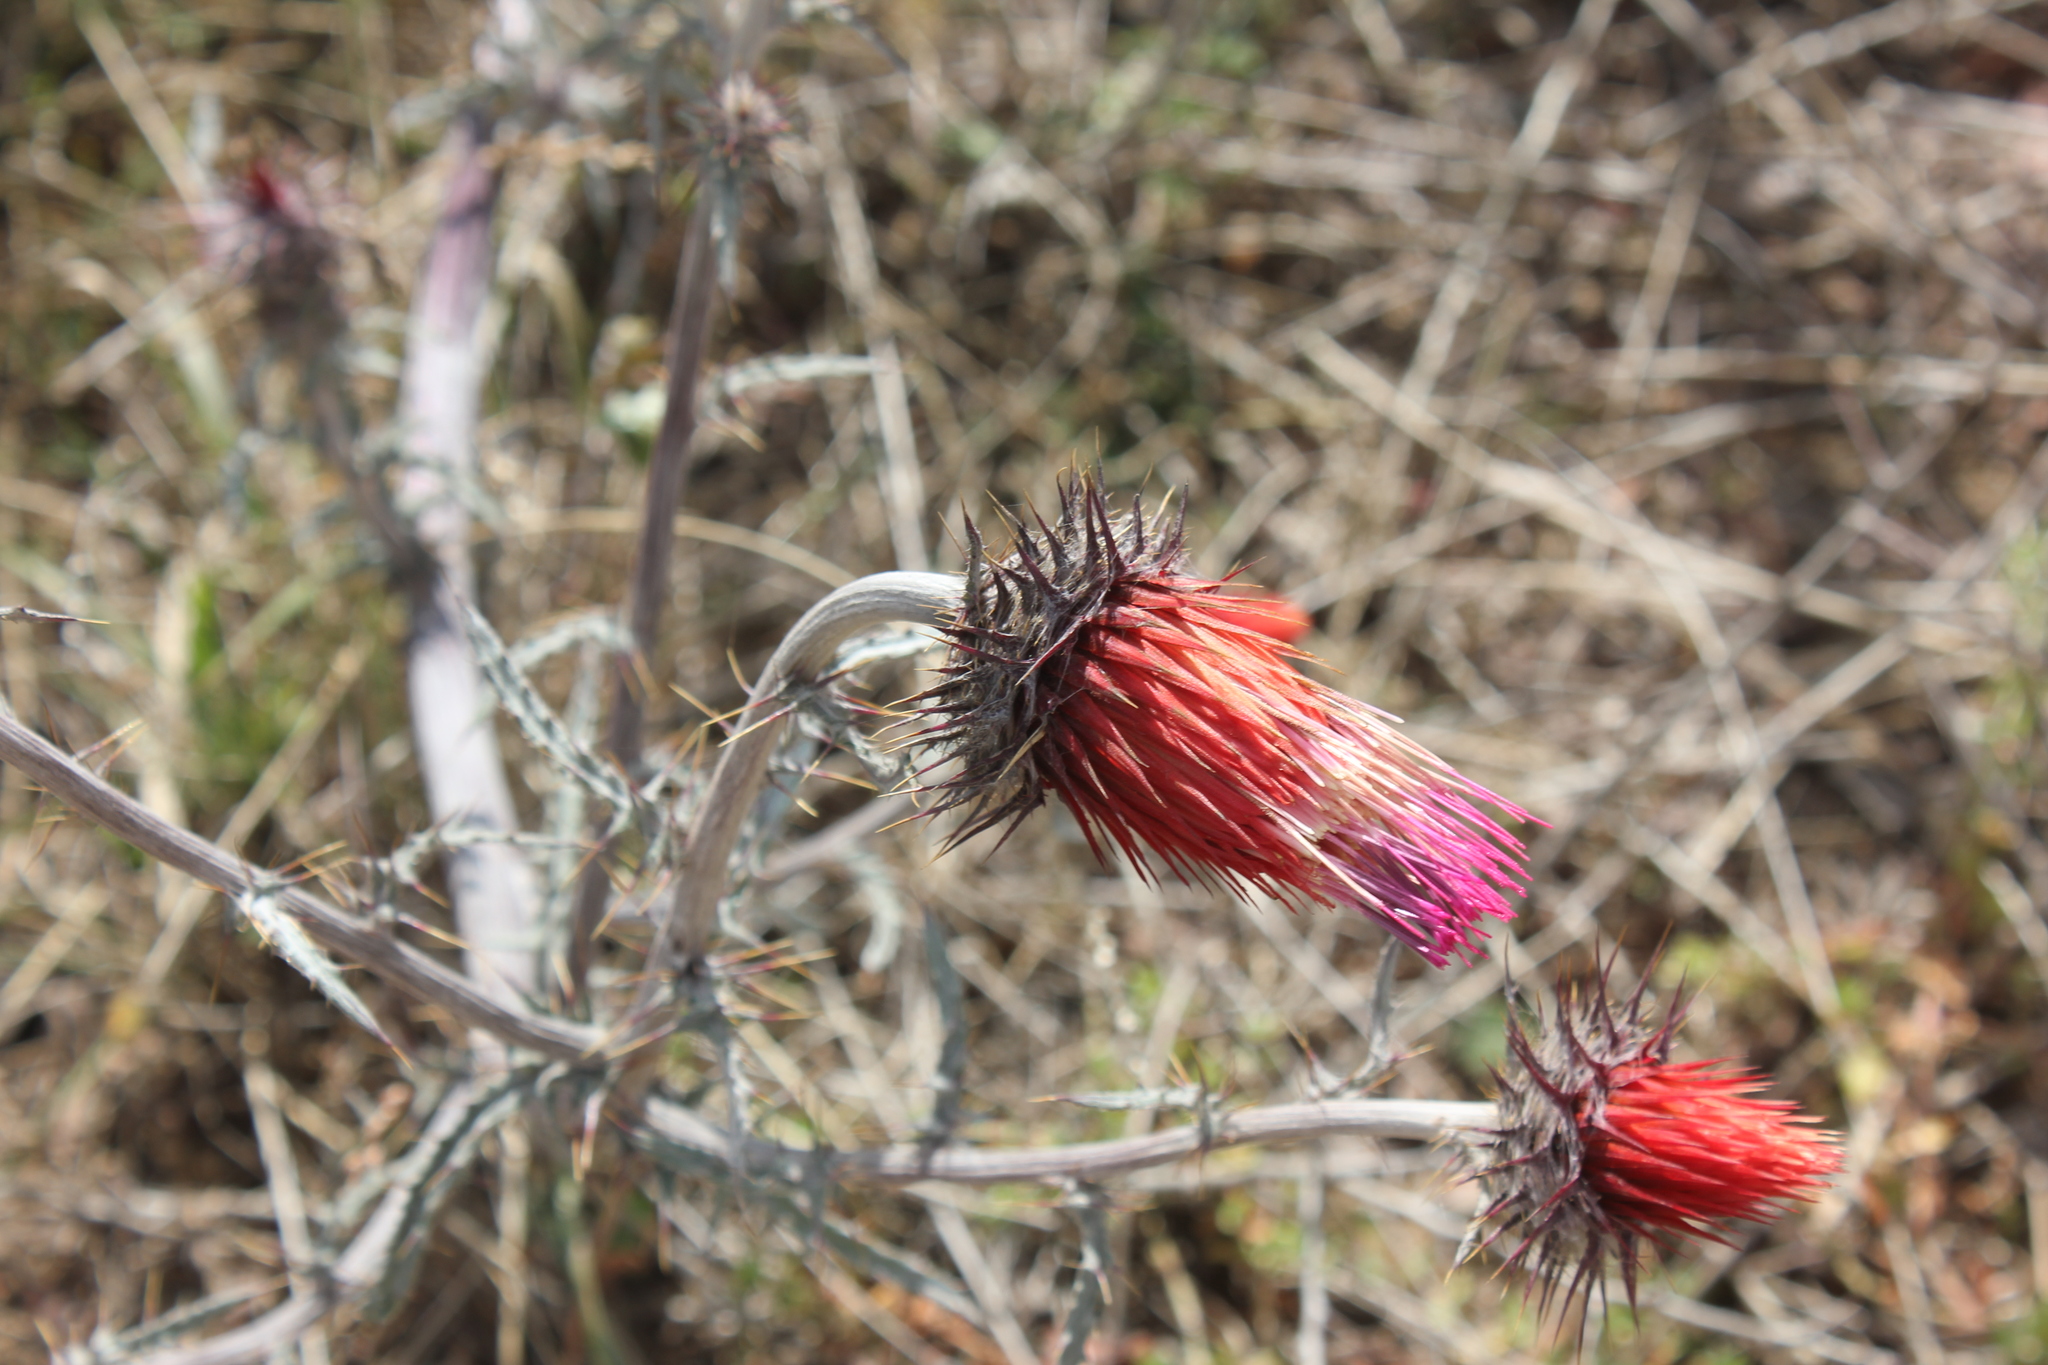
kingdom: Plantae
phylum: Tracheophyta
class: Magnoliopsida
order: Asterales
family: Asteraceae
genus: Cirsium
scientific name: Cirsium ehrenbergii
